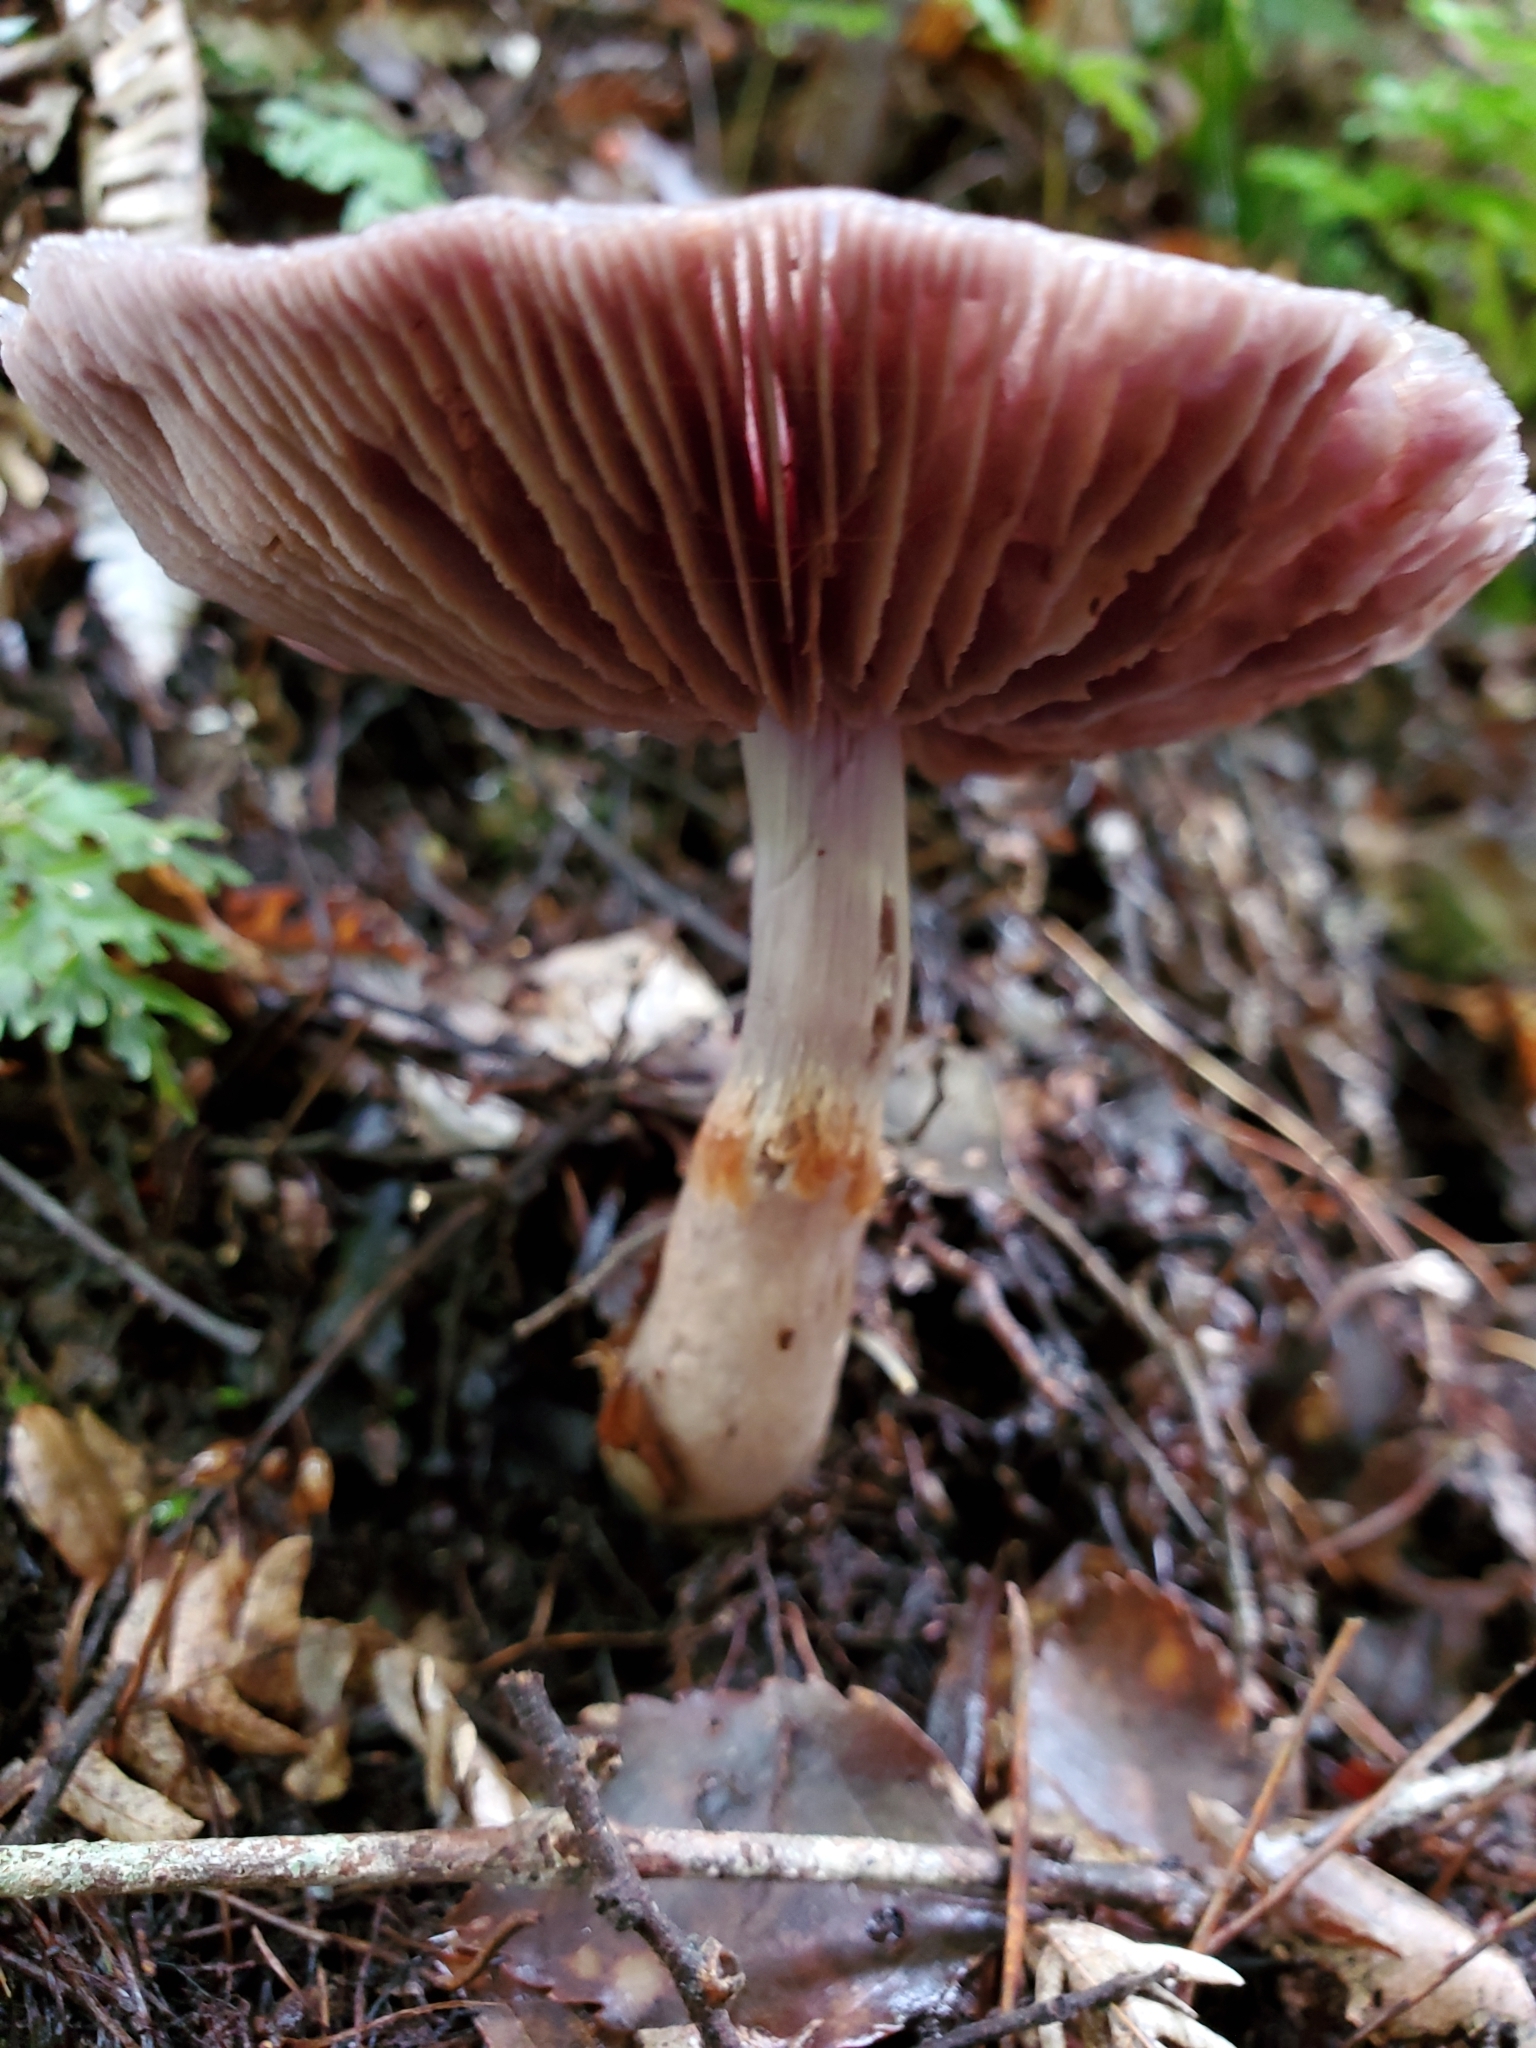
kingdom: Fungi
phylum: Basidiomycota
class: Agaricomycetes
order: Agaricales
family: Cortinariaceae
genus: Cortinarius
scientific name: Cortinarius taylorianus
